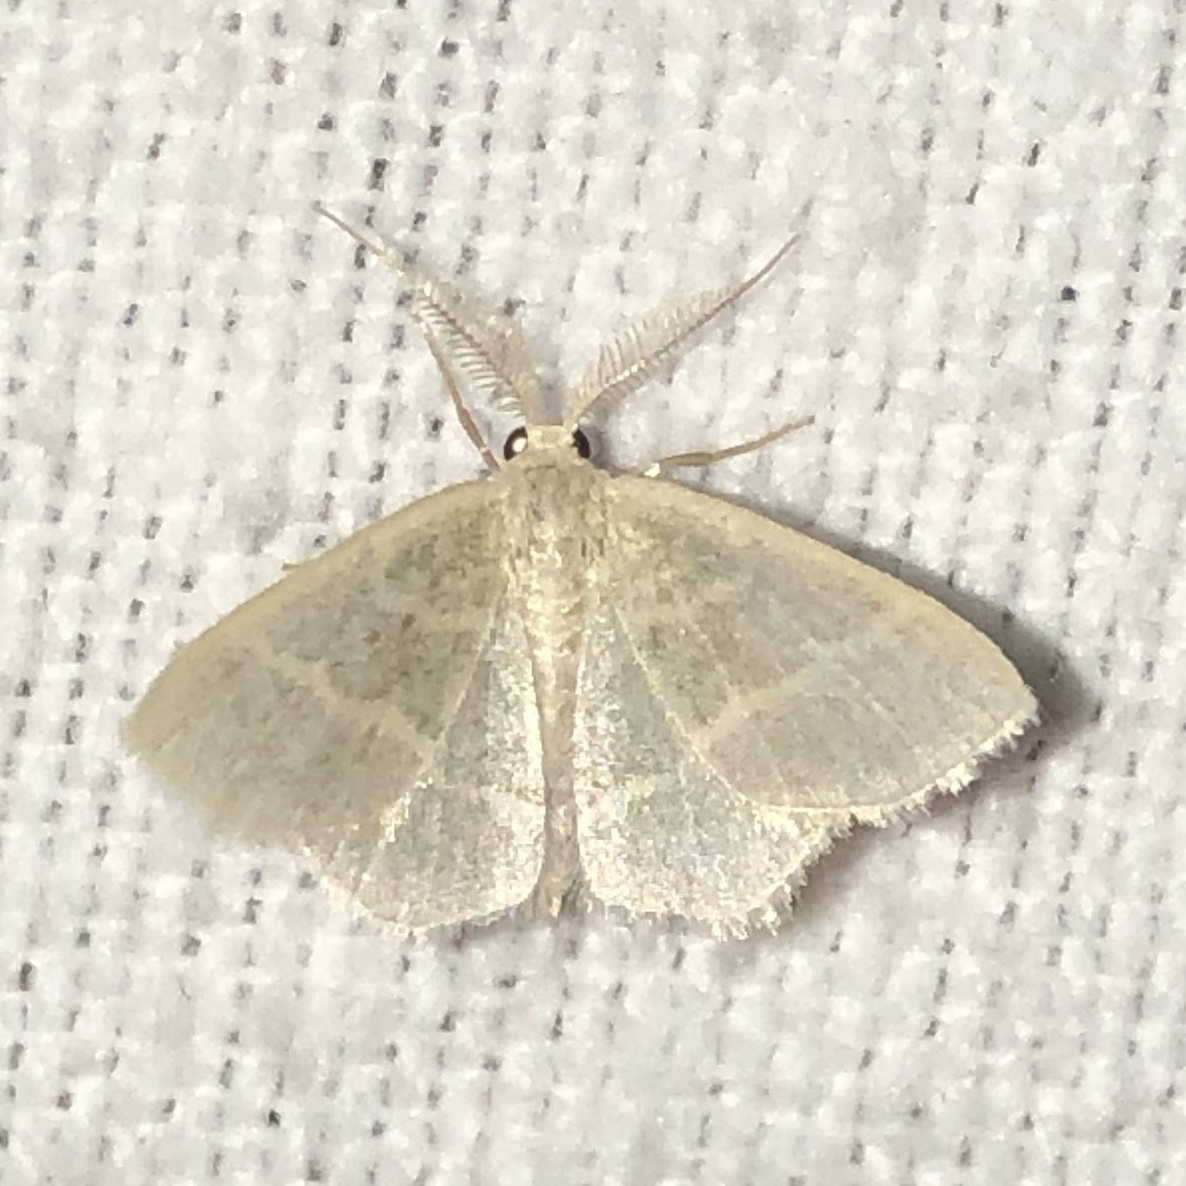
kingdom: Animalia
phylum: Arthropoda
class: Insecta
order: Lepidoptera
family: Geometridae
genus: Chlorochlamys
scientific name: Chlorochlamys chloroleucaria
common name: Blackberry looper
